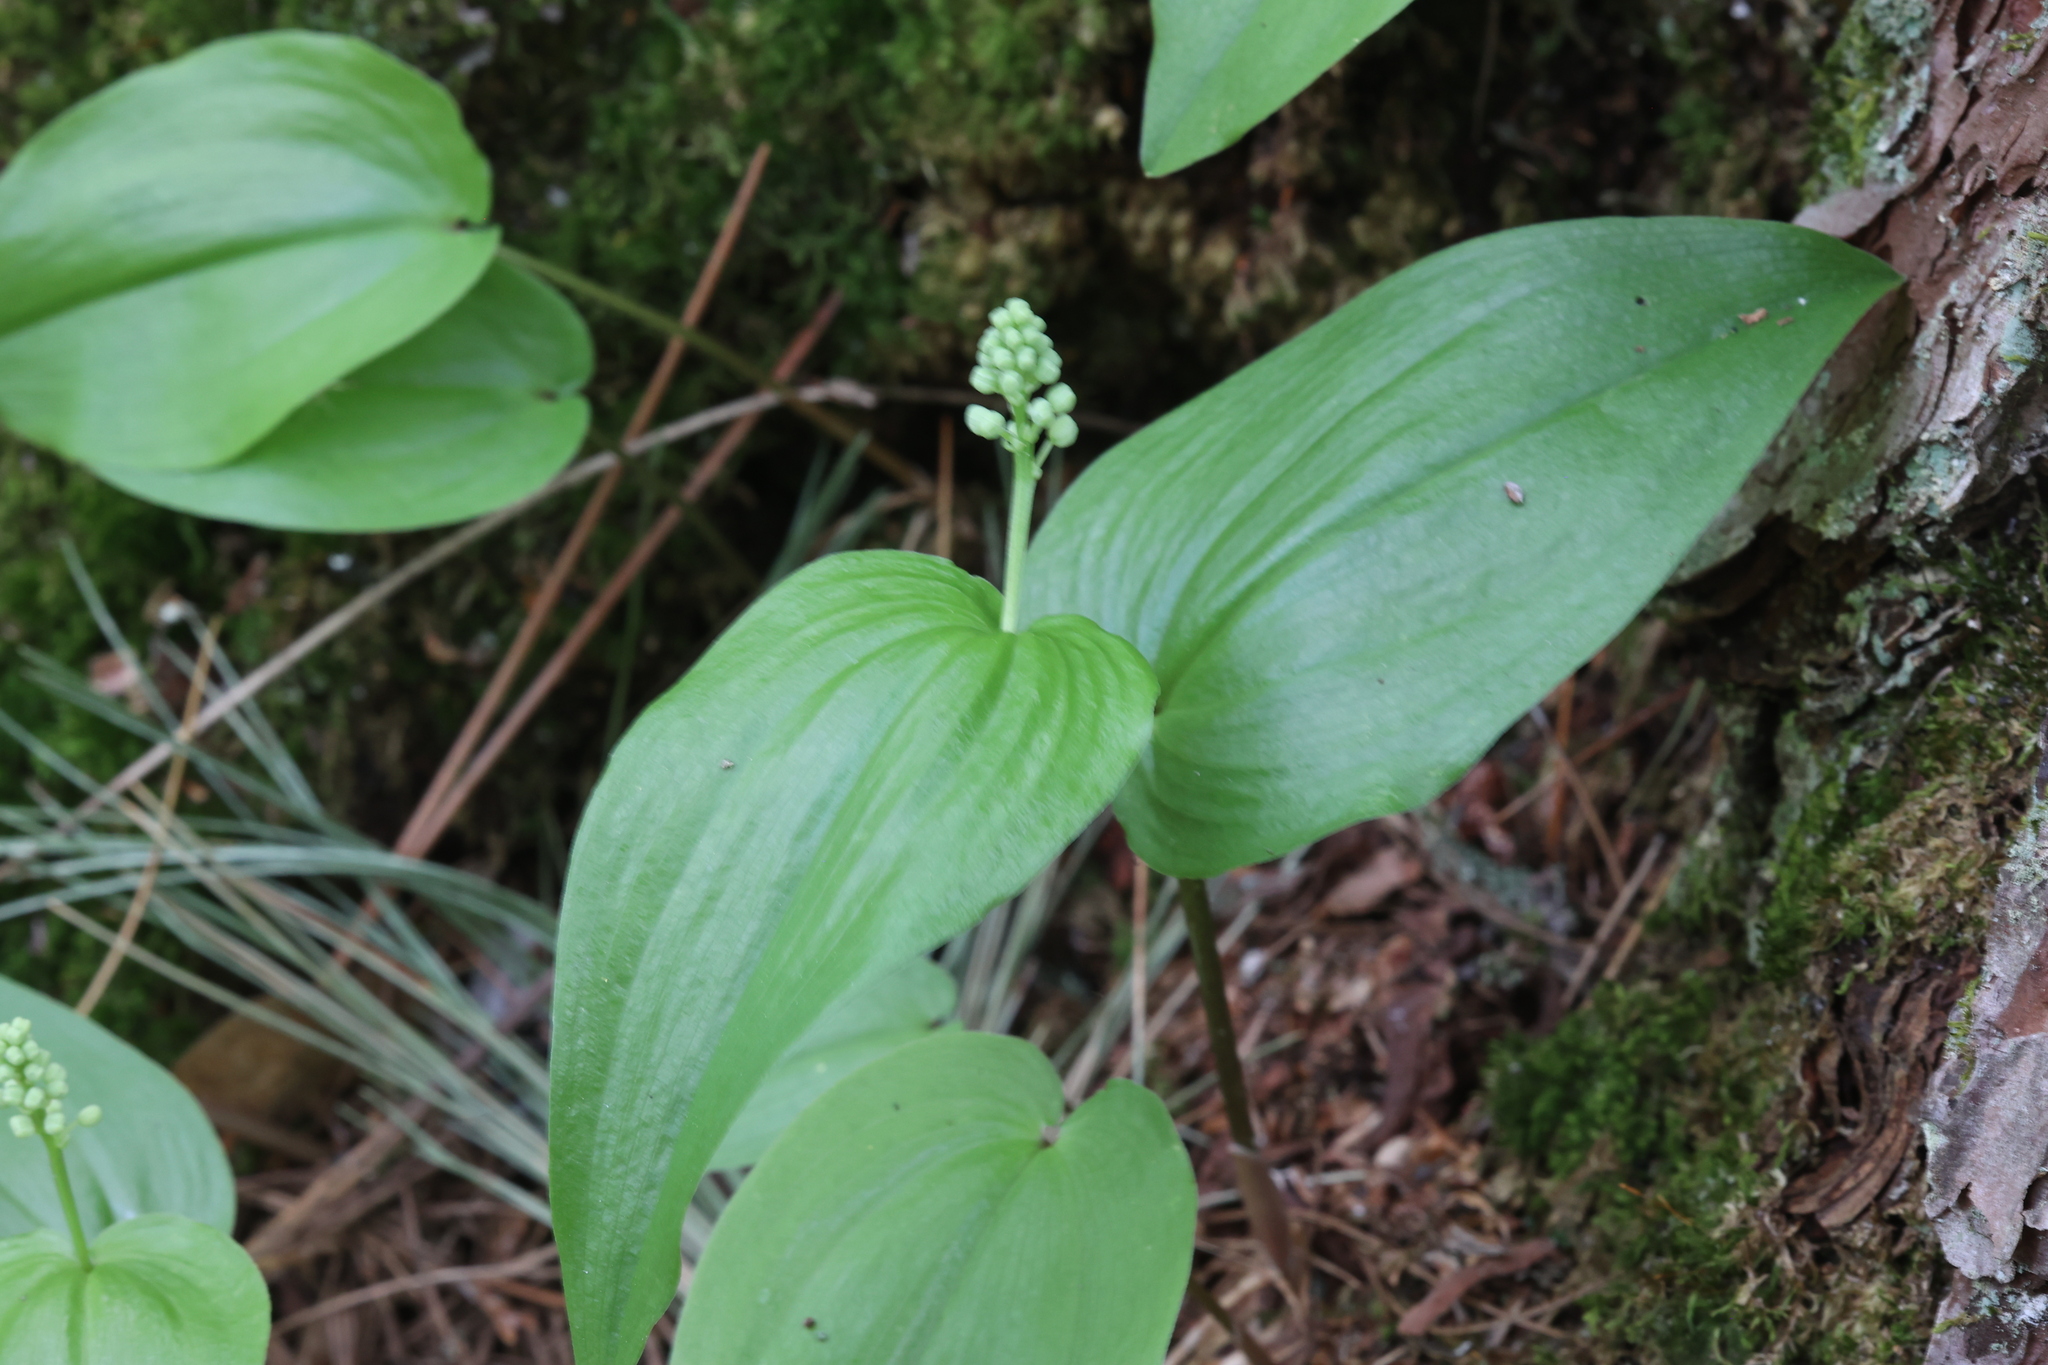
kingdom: Plantae
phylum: Tracheophyta
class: Liliopsida
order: Asparagales
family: Asparagaceae
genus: Maianthemum
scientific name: Maianthemum canadense
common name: False lily-of-the-valley
